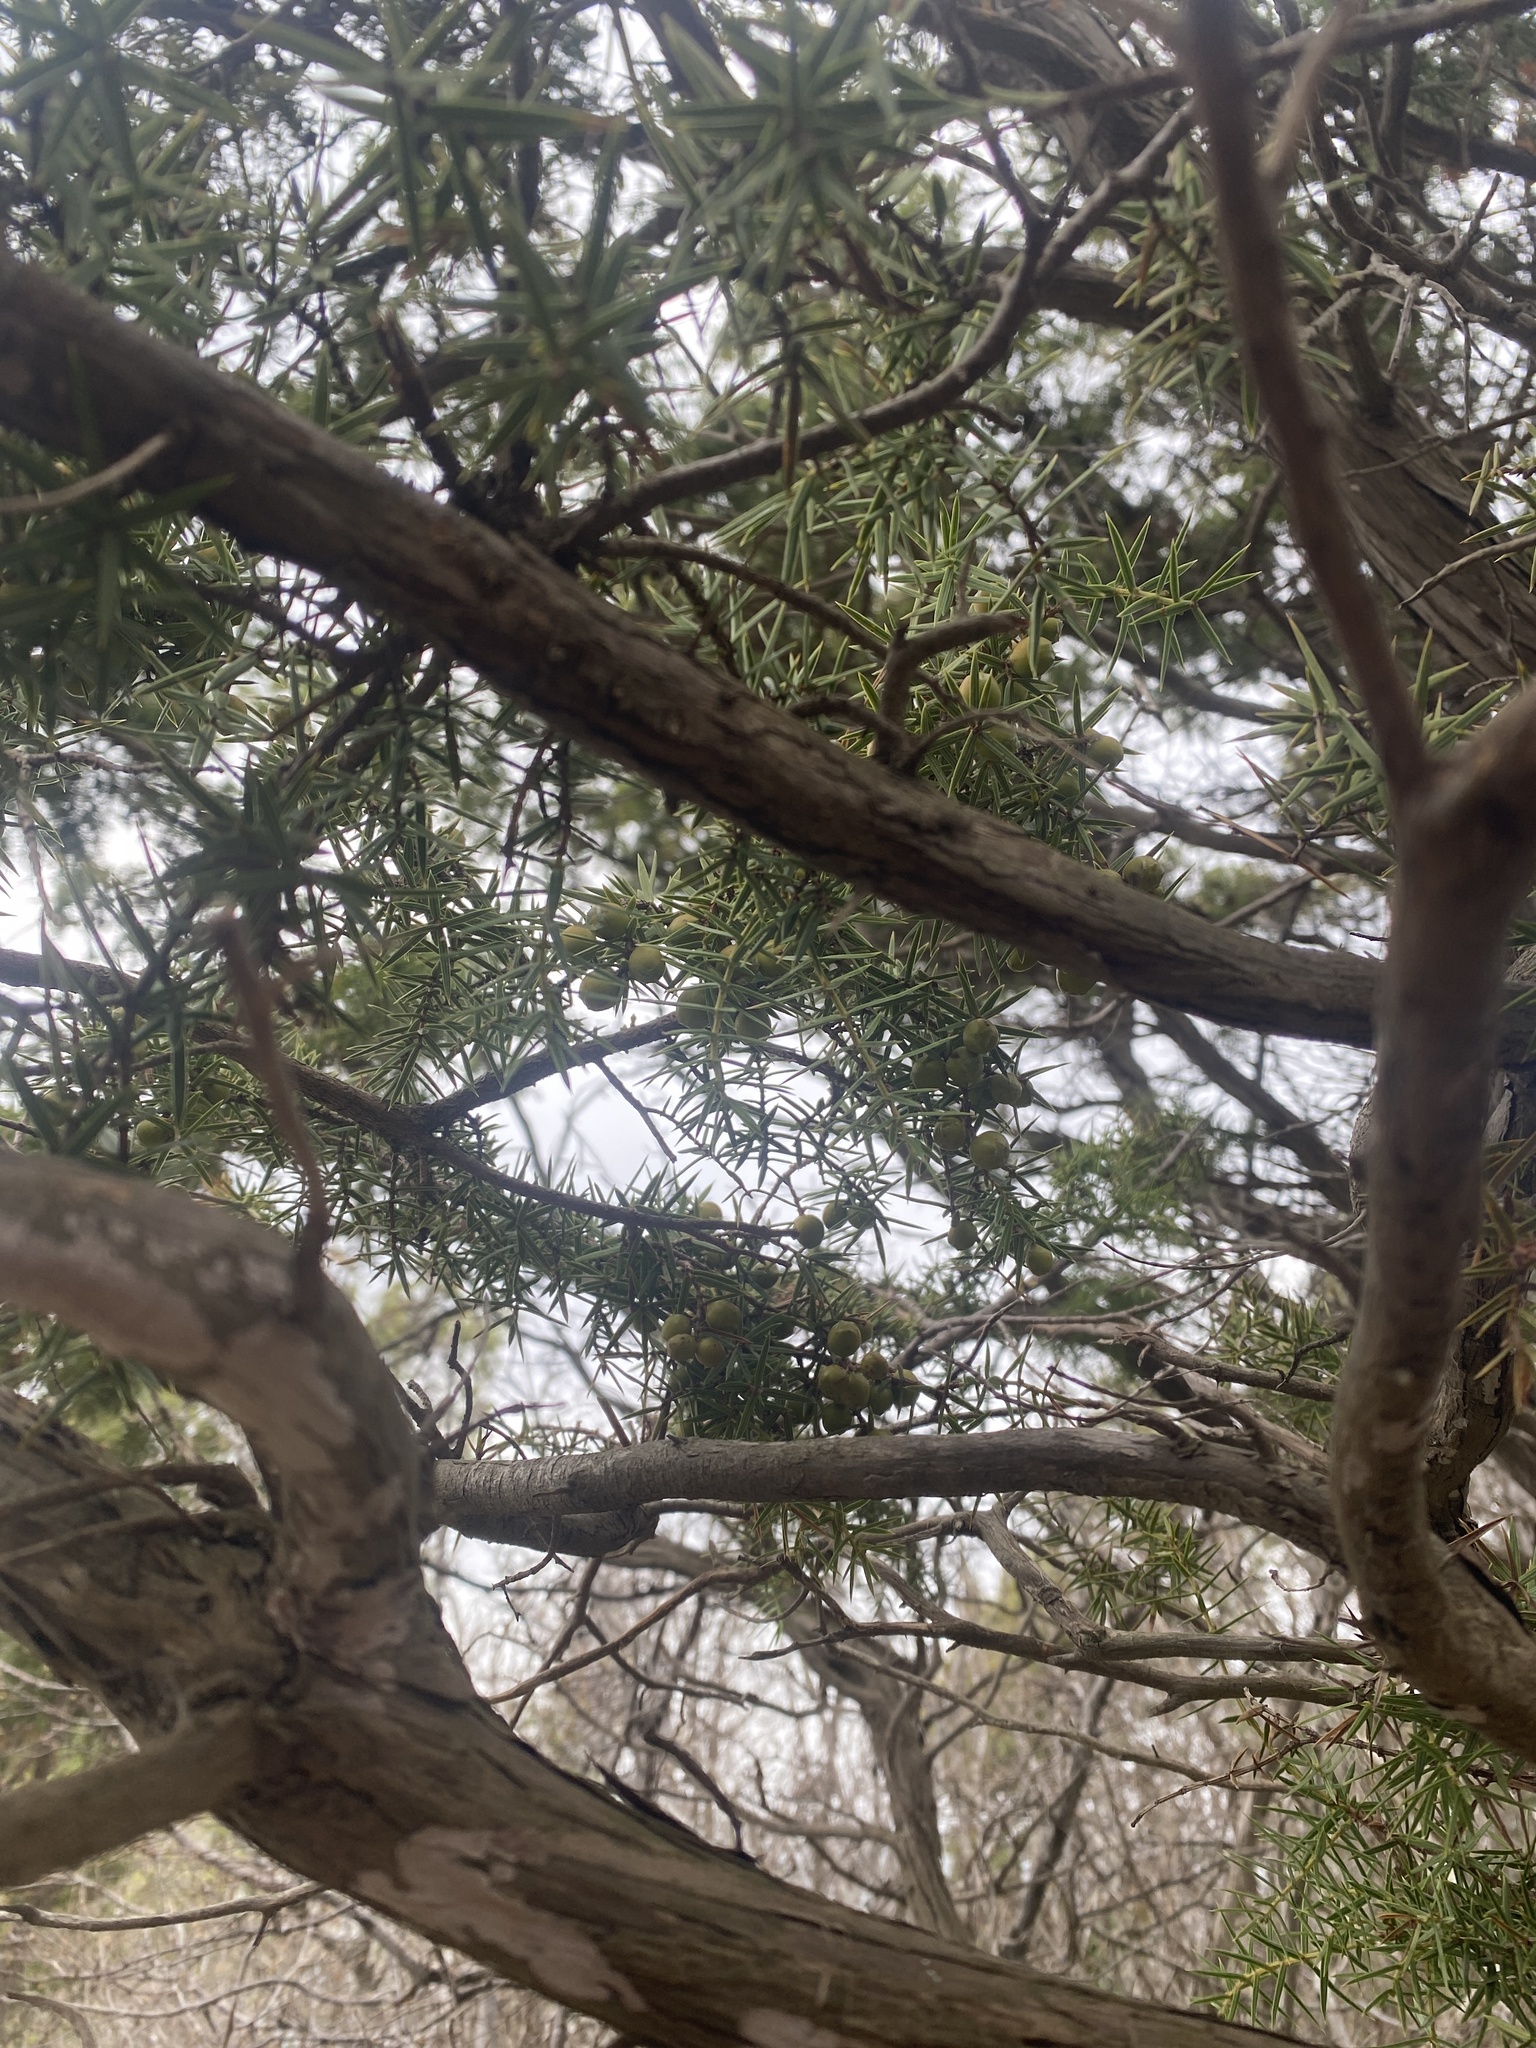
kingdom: Plantae
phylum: Tracheophyta
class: Pinopsida
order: Pinales
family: Cupressaceae
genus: Juniperus
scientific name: Juniperus oxycedrus
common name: Prickly juniper
